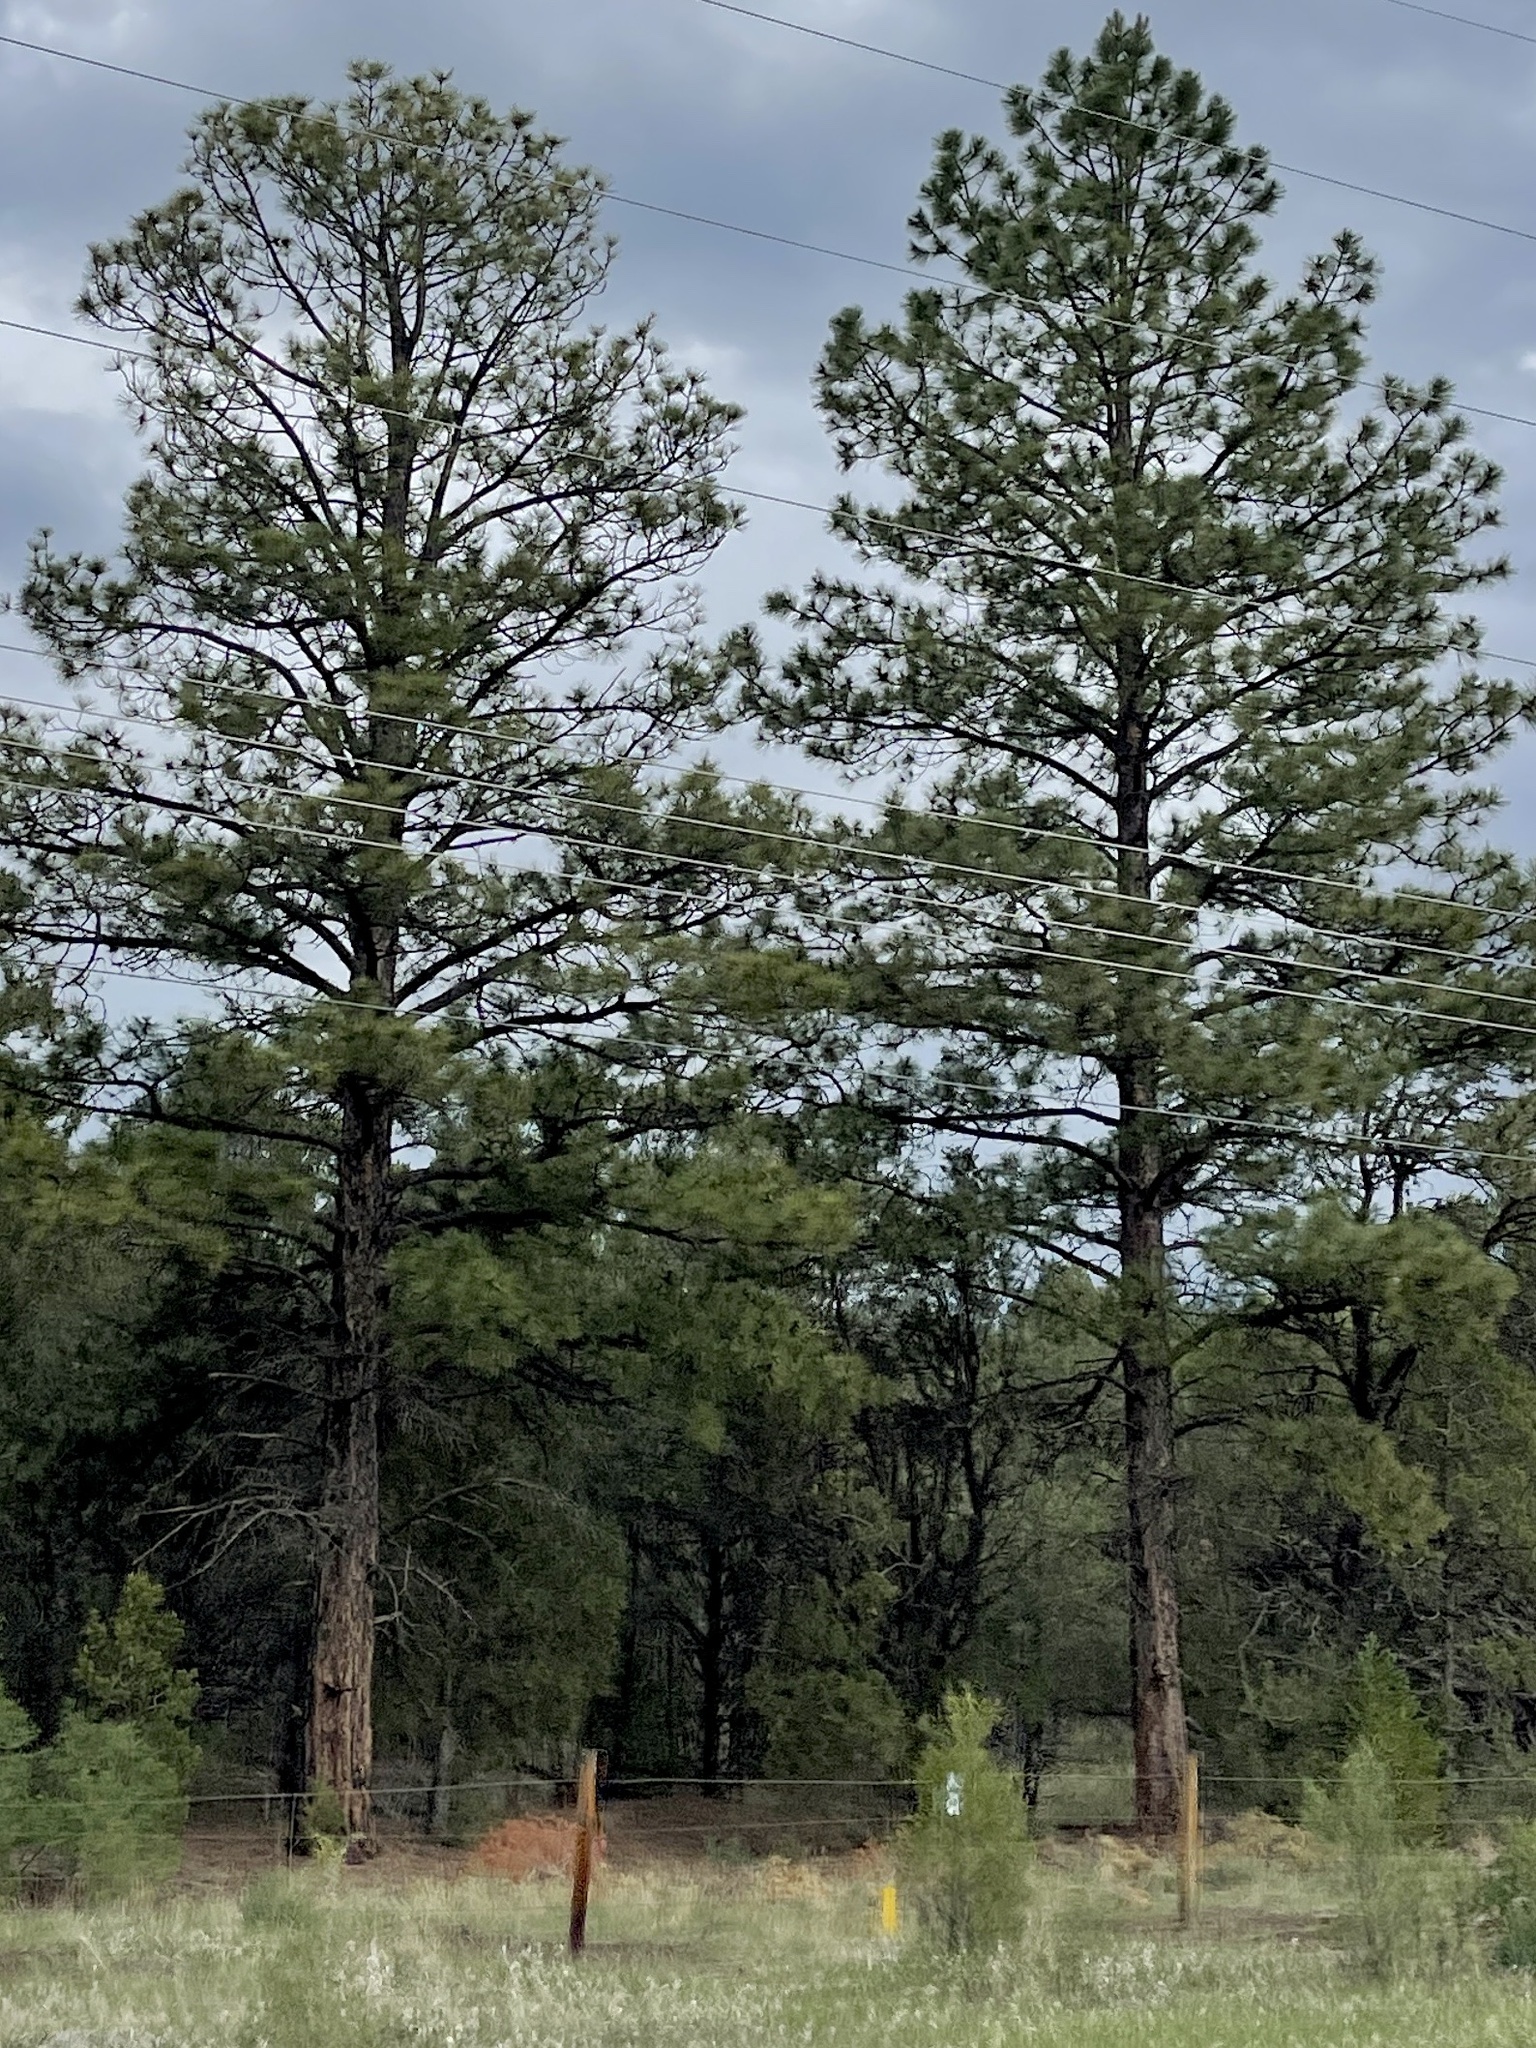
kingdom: Plantae
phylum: Tracheophyta
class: Pinopsida
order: Pinales
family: Pinaceae
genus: Pinus
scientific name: Pinus ponderosa
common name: Western yellow-pine
